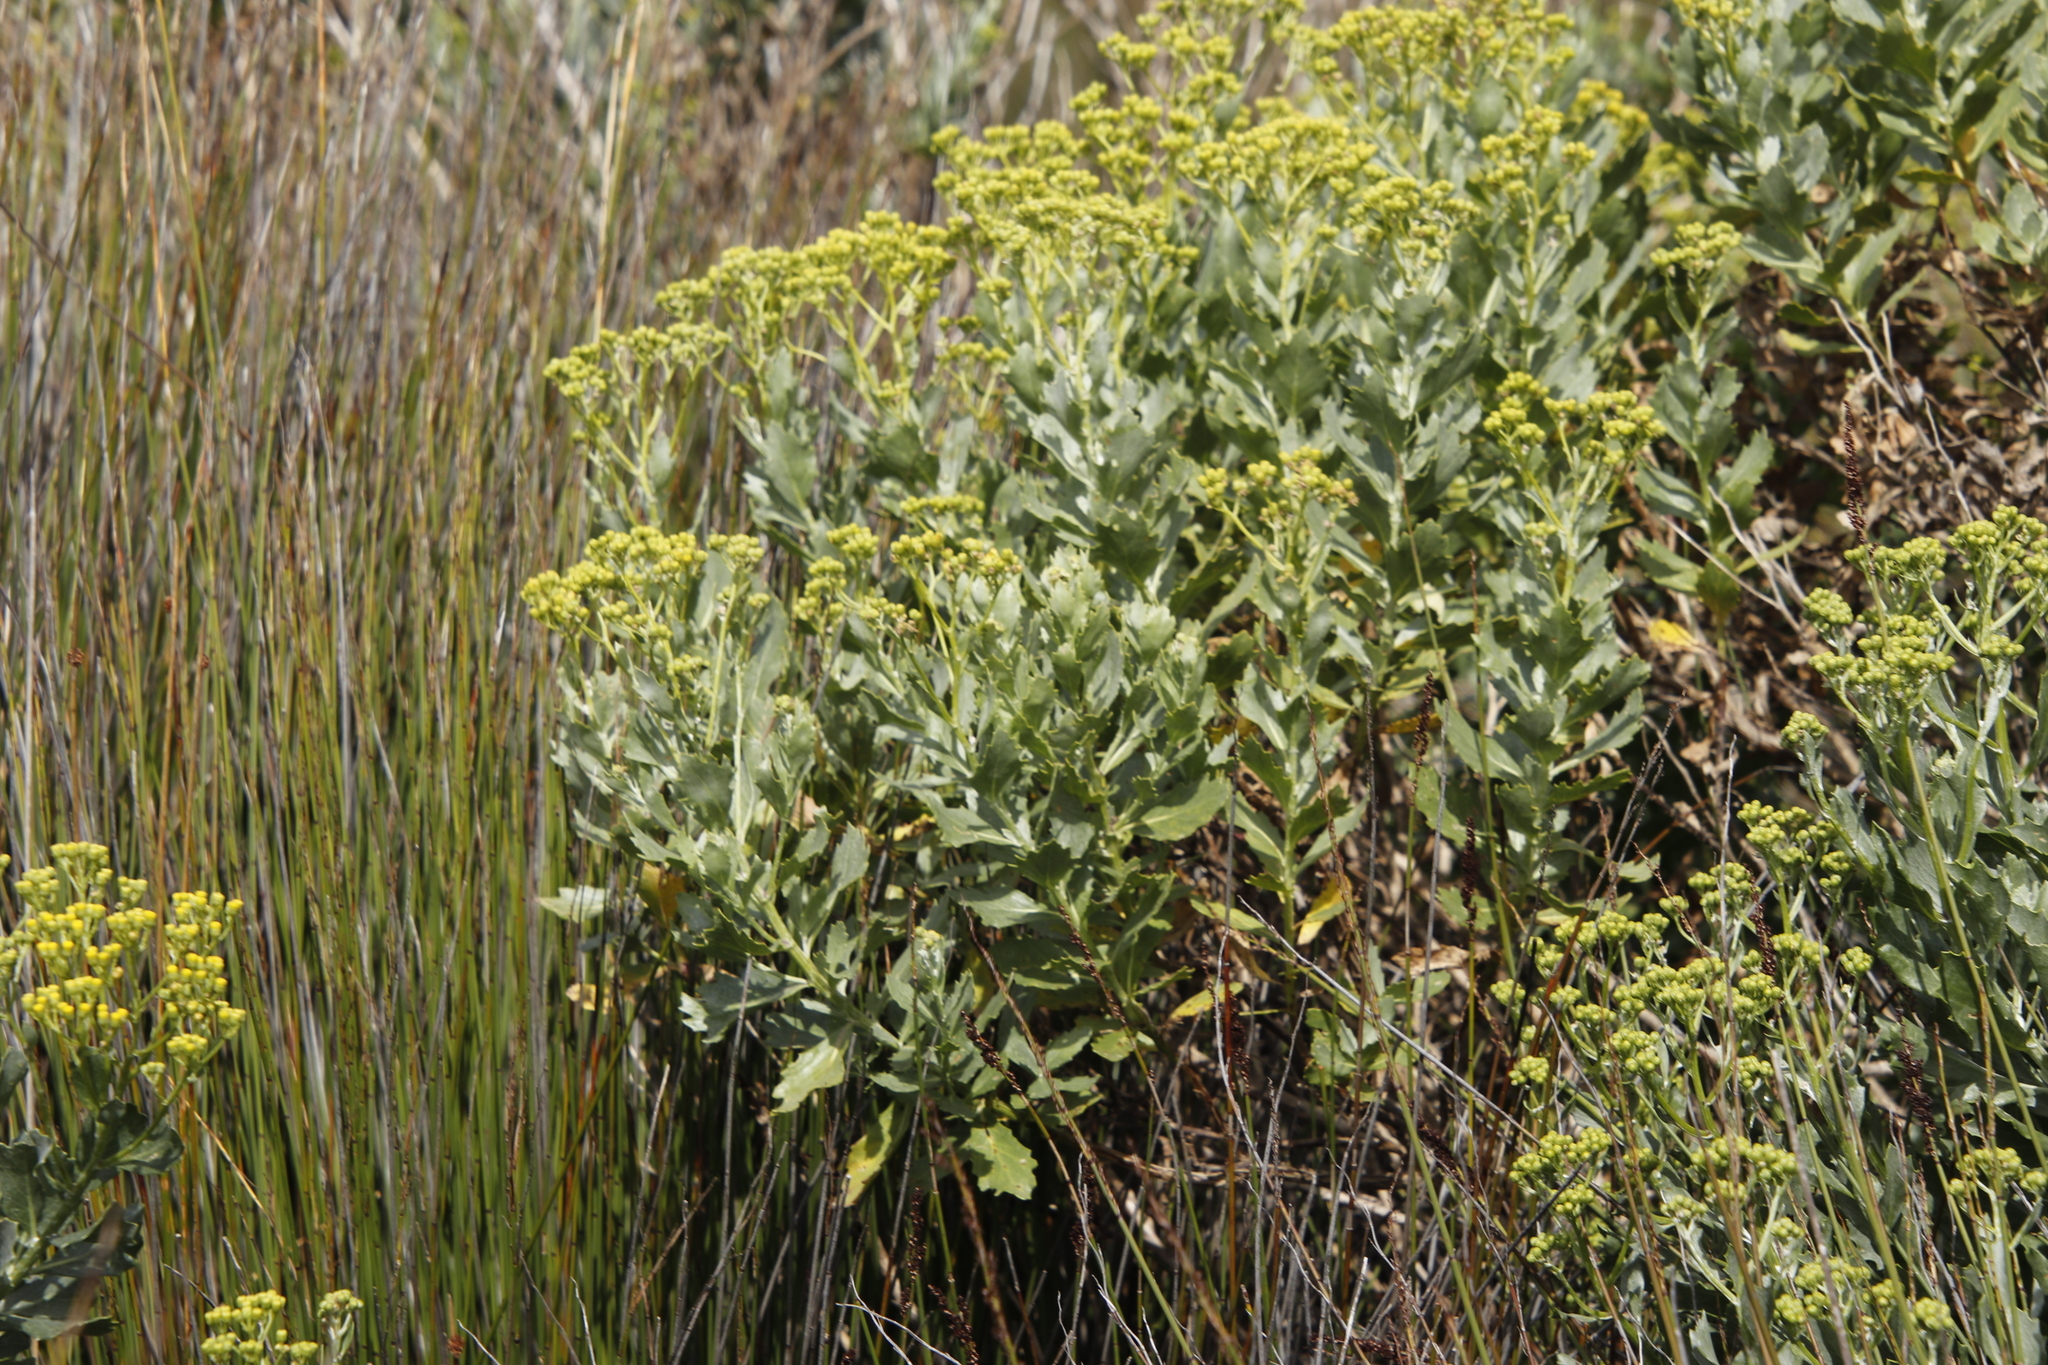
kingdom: Plantae
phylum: Tracheophyta
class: Magnoliopsida
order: Asterales
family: Asteraceae
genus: Senecio
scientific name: Senecio halimifolius
